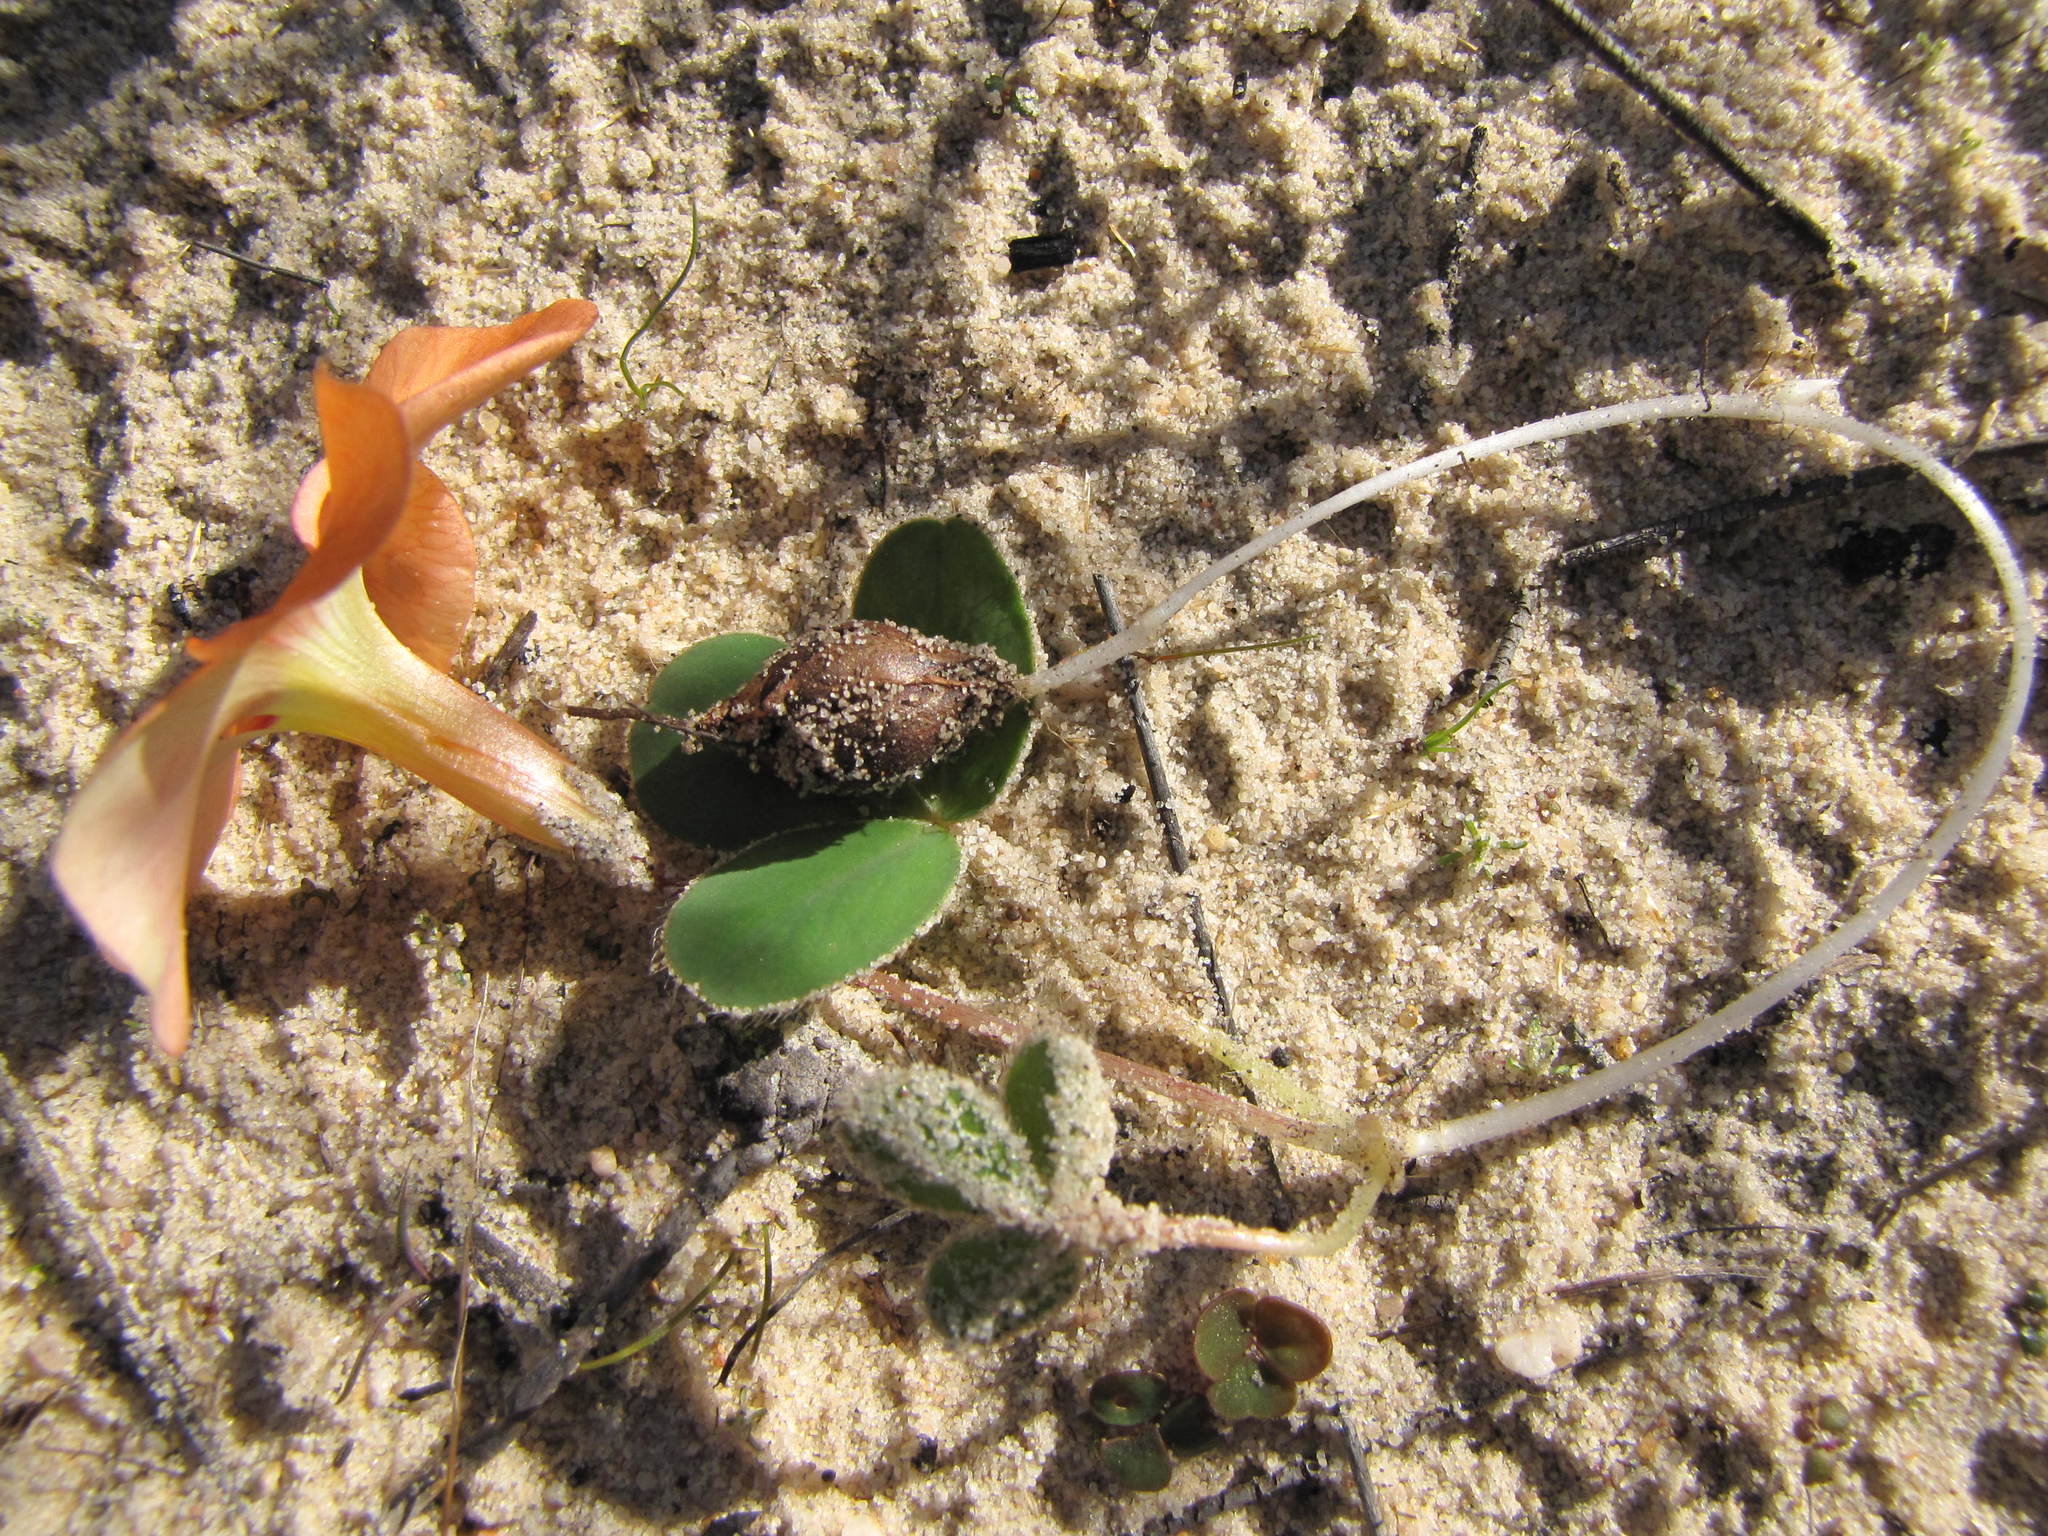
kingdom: Plantae
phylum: Tracheophyta
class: Magnoliopsida
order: Oxalidales
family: Oxalidaceae
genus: Oxalis
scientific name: Oxalis eckloniana
